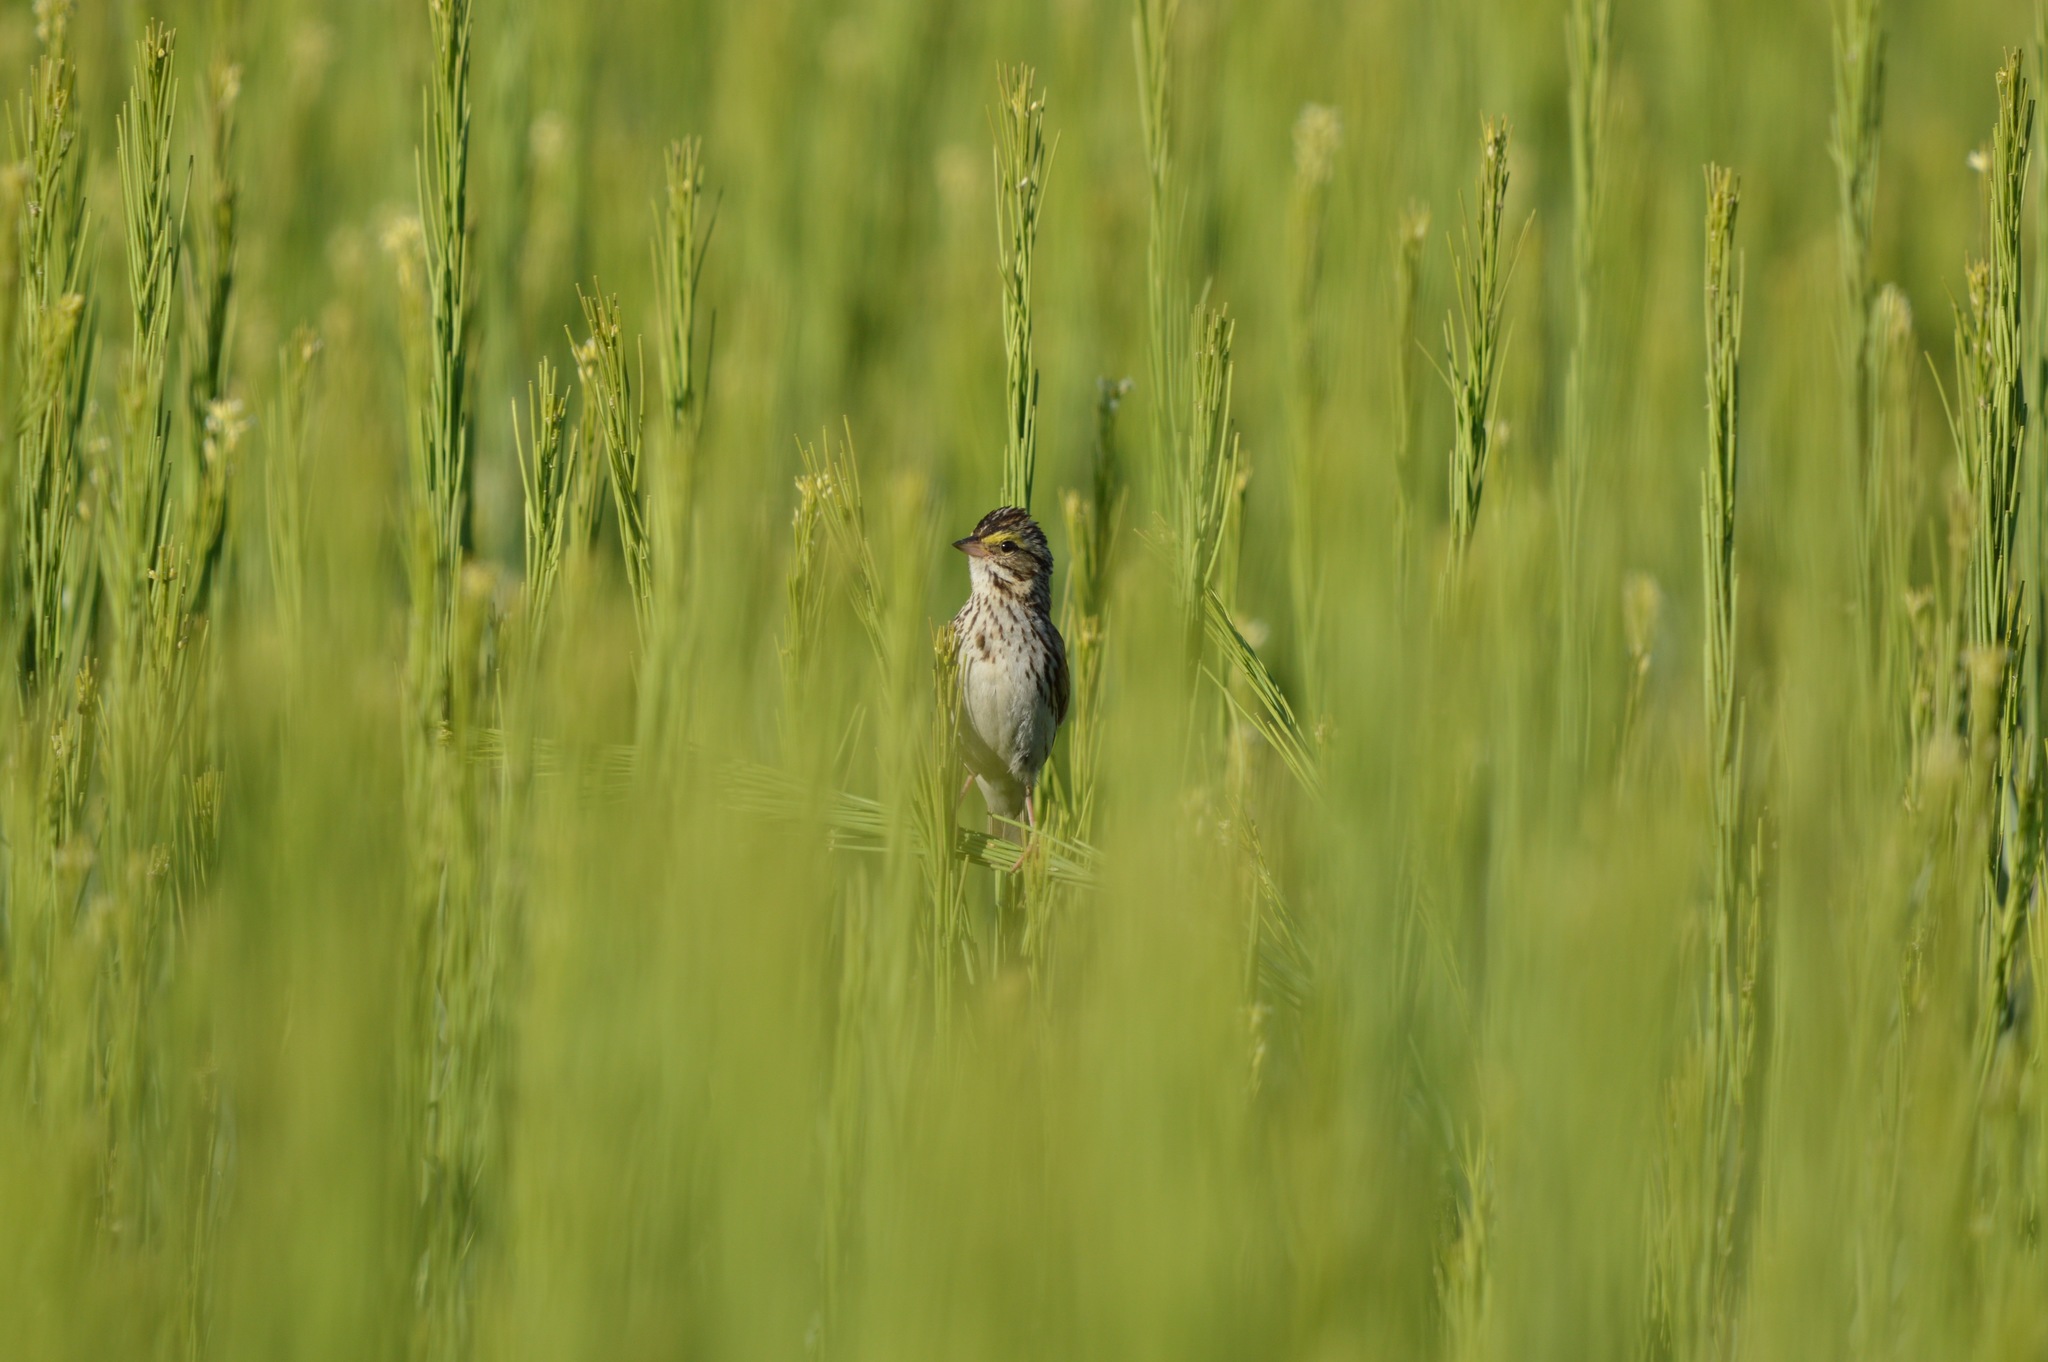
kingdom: Animalia
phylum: Chordata
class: Aves
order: Passeriformes
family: Passerellidae
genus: Passerculus
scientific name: Passerculus sandwichensis
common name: Savannah sparrow
